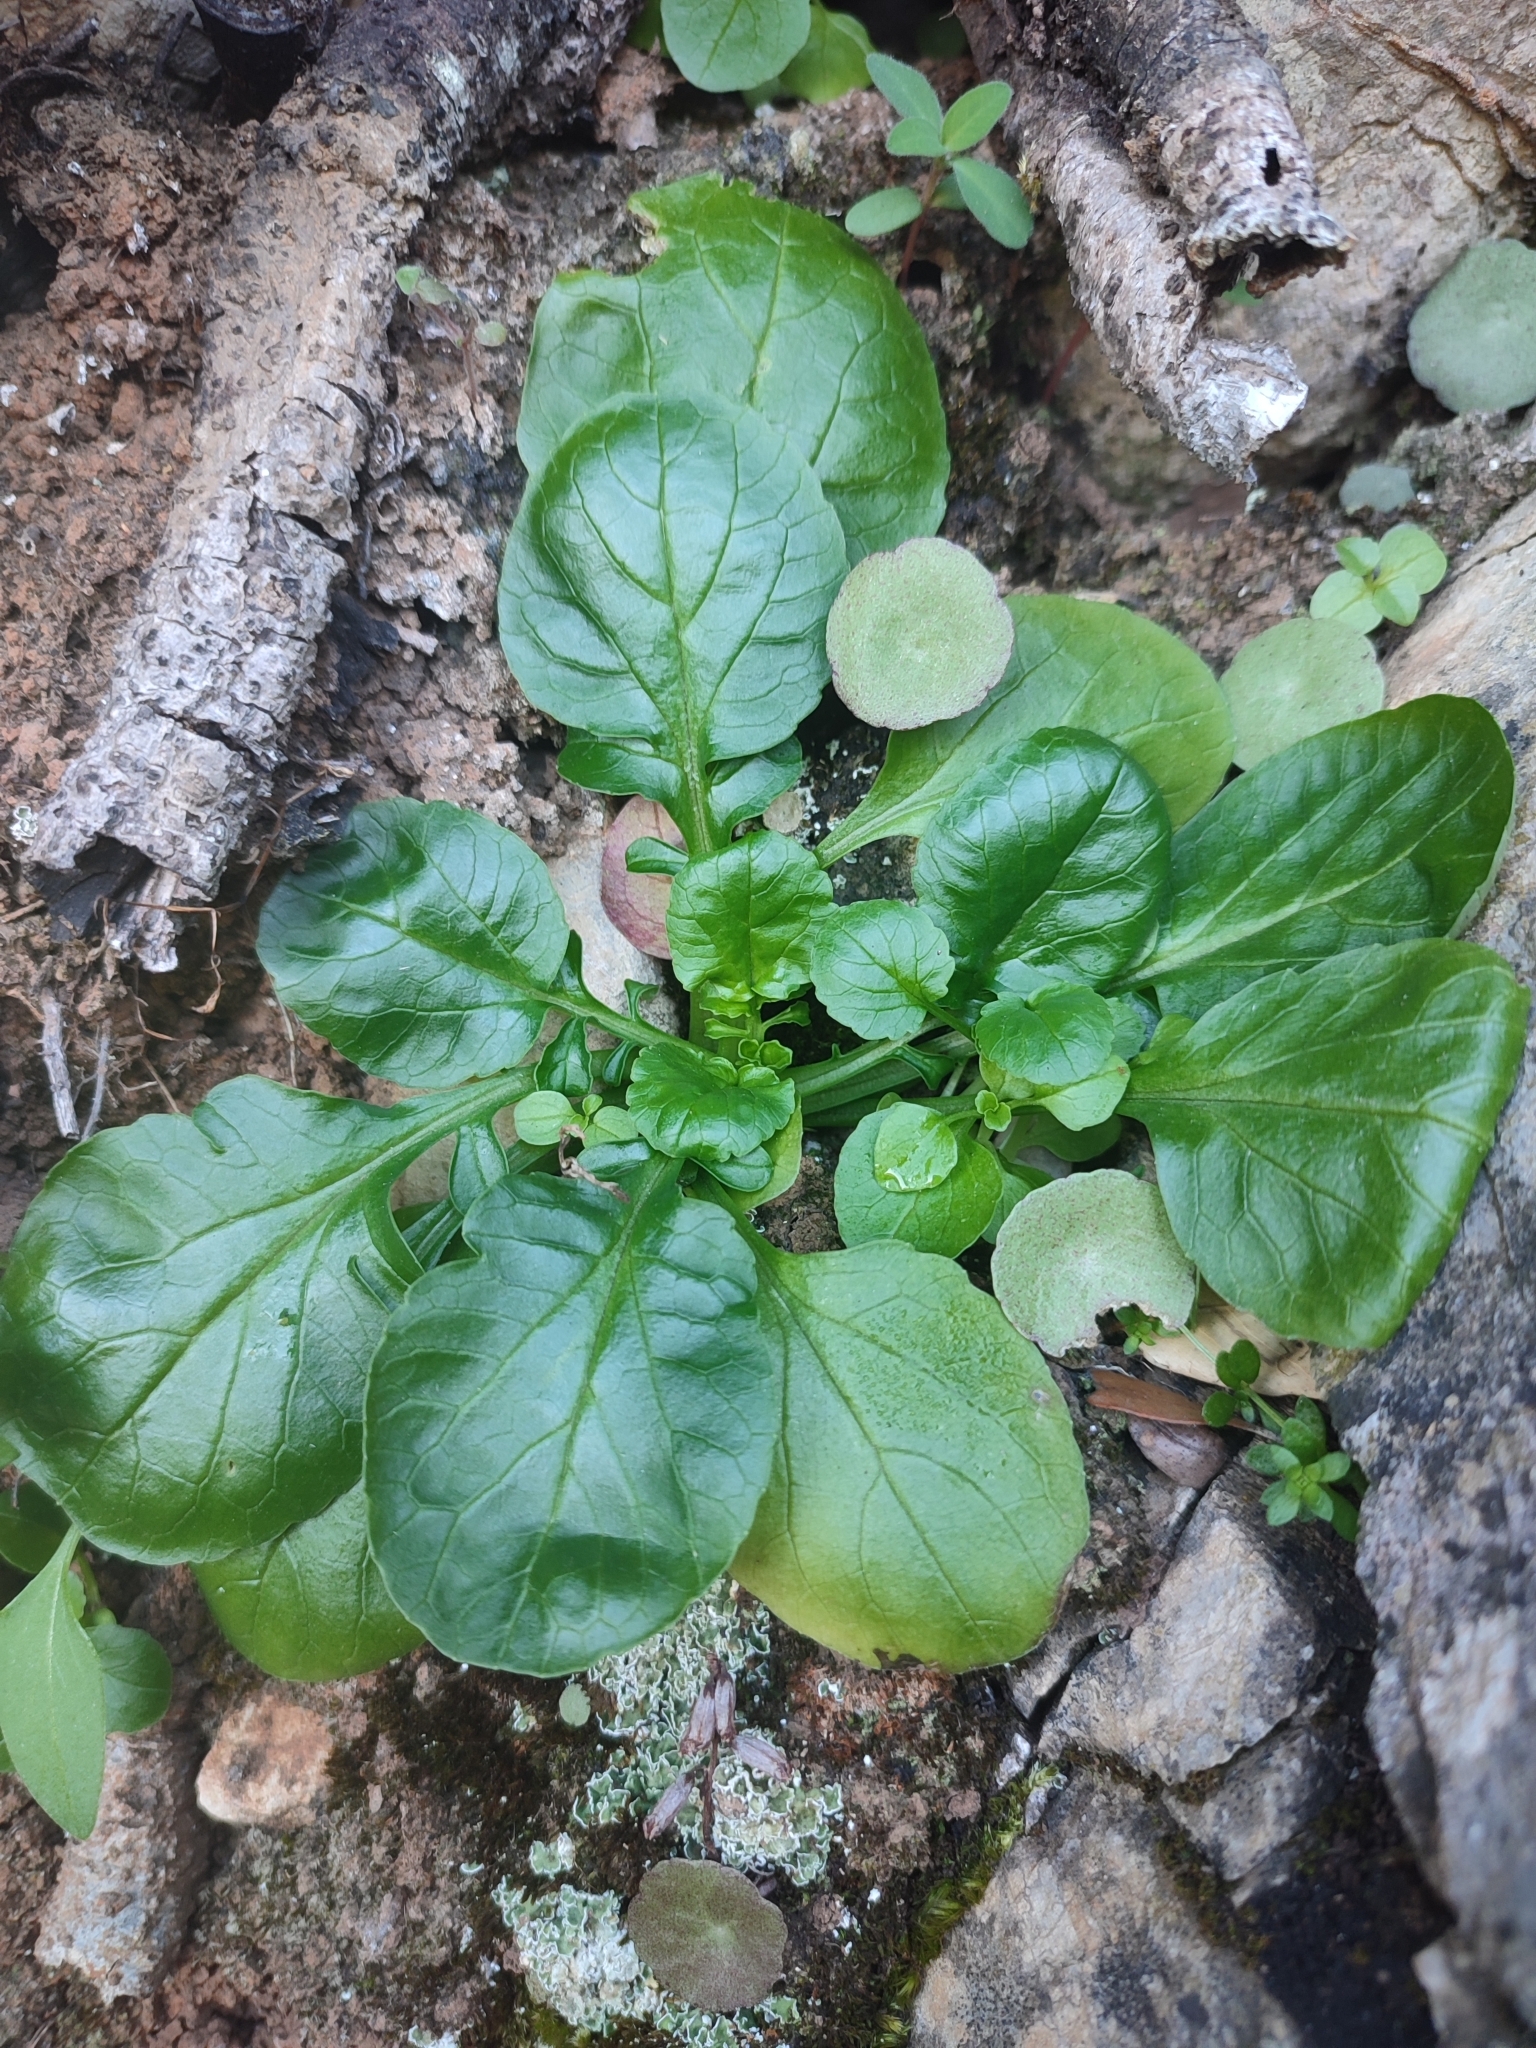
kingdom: Plantae
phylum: Tracheophyta
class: Magnoliopsida
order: Dipsacales
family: Caprifoliaceae
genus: Centranthus
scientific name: Centranthus calcitrapae
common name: Annual valerian
